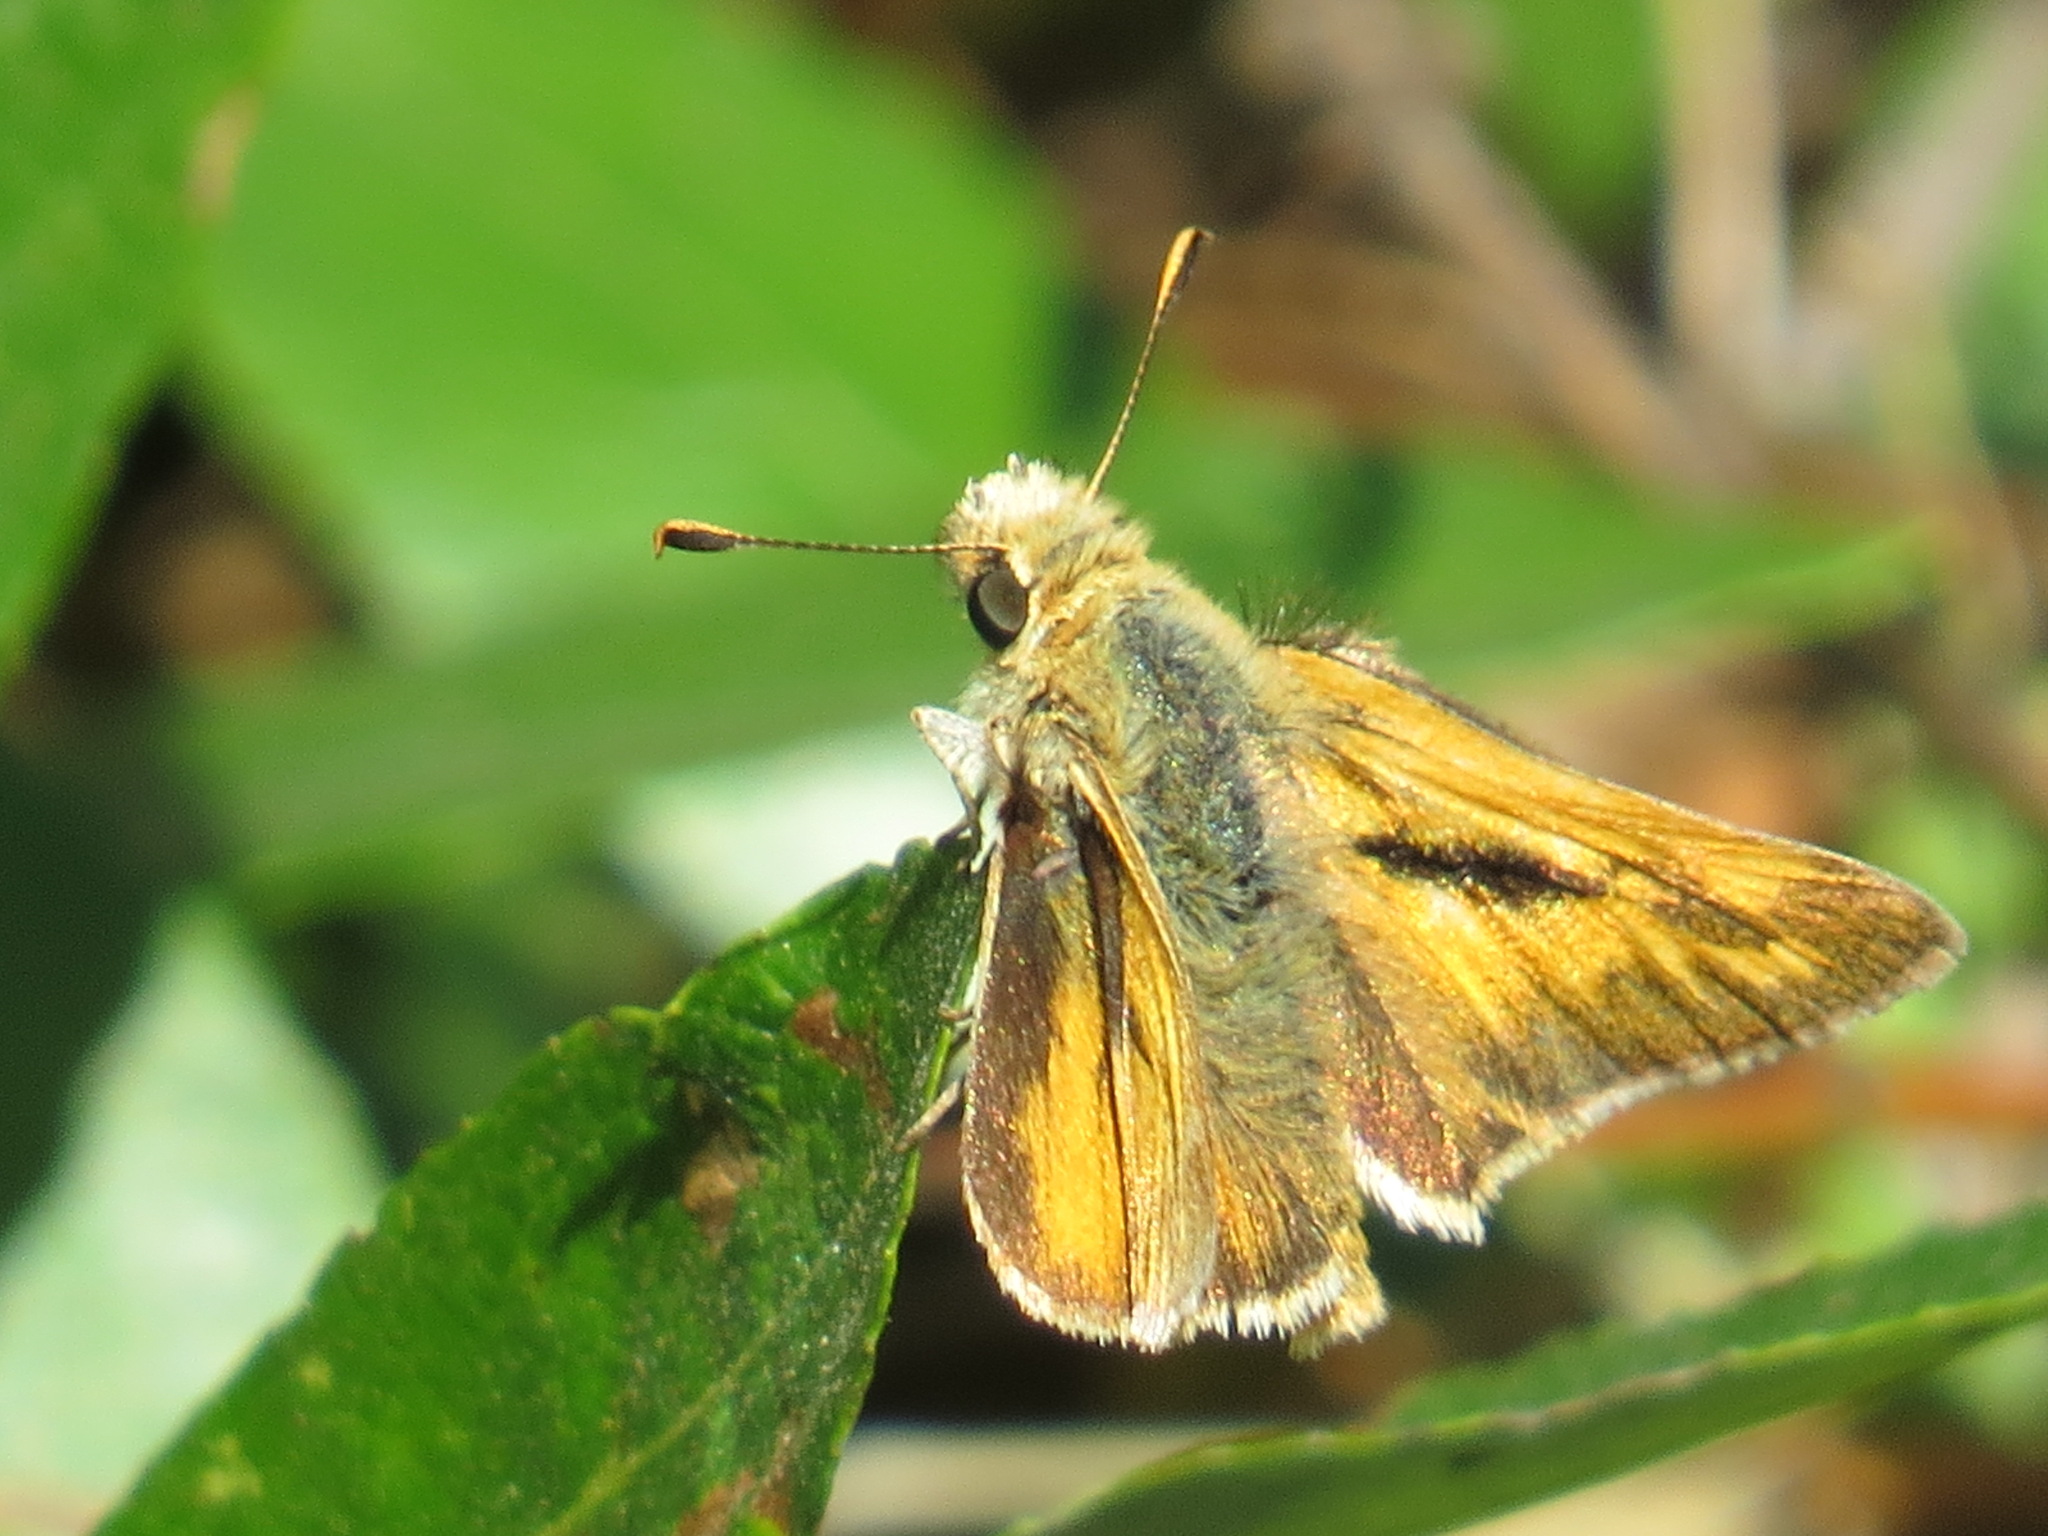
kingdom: Animalia
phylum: Arthropoda
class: Insecta
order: Lepidoptera
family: Hesperiidae
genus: Ochlodes
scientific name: Ochlodes sylvanoides
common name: Woodland skipper
